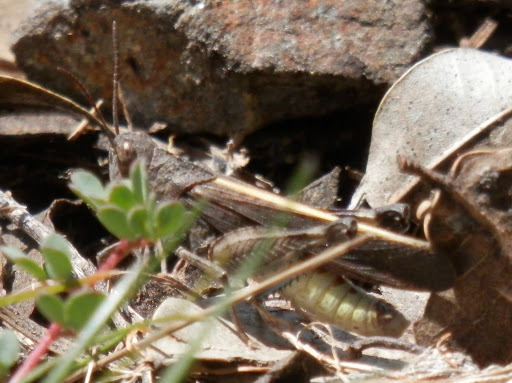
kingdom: Animalia
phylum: Arthropoda
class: Insecta
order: Orthoptera
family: Acrididae
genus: Arphia
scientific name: Arphia behrensi
